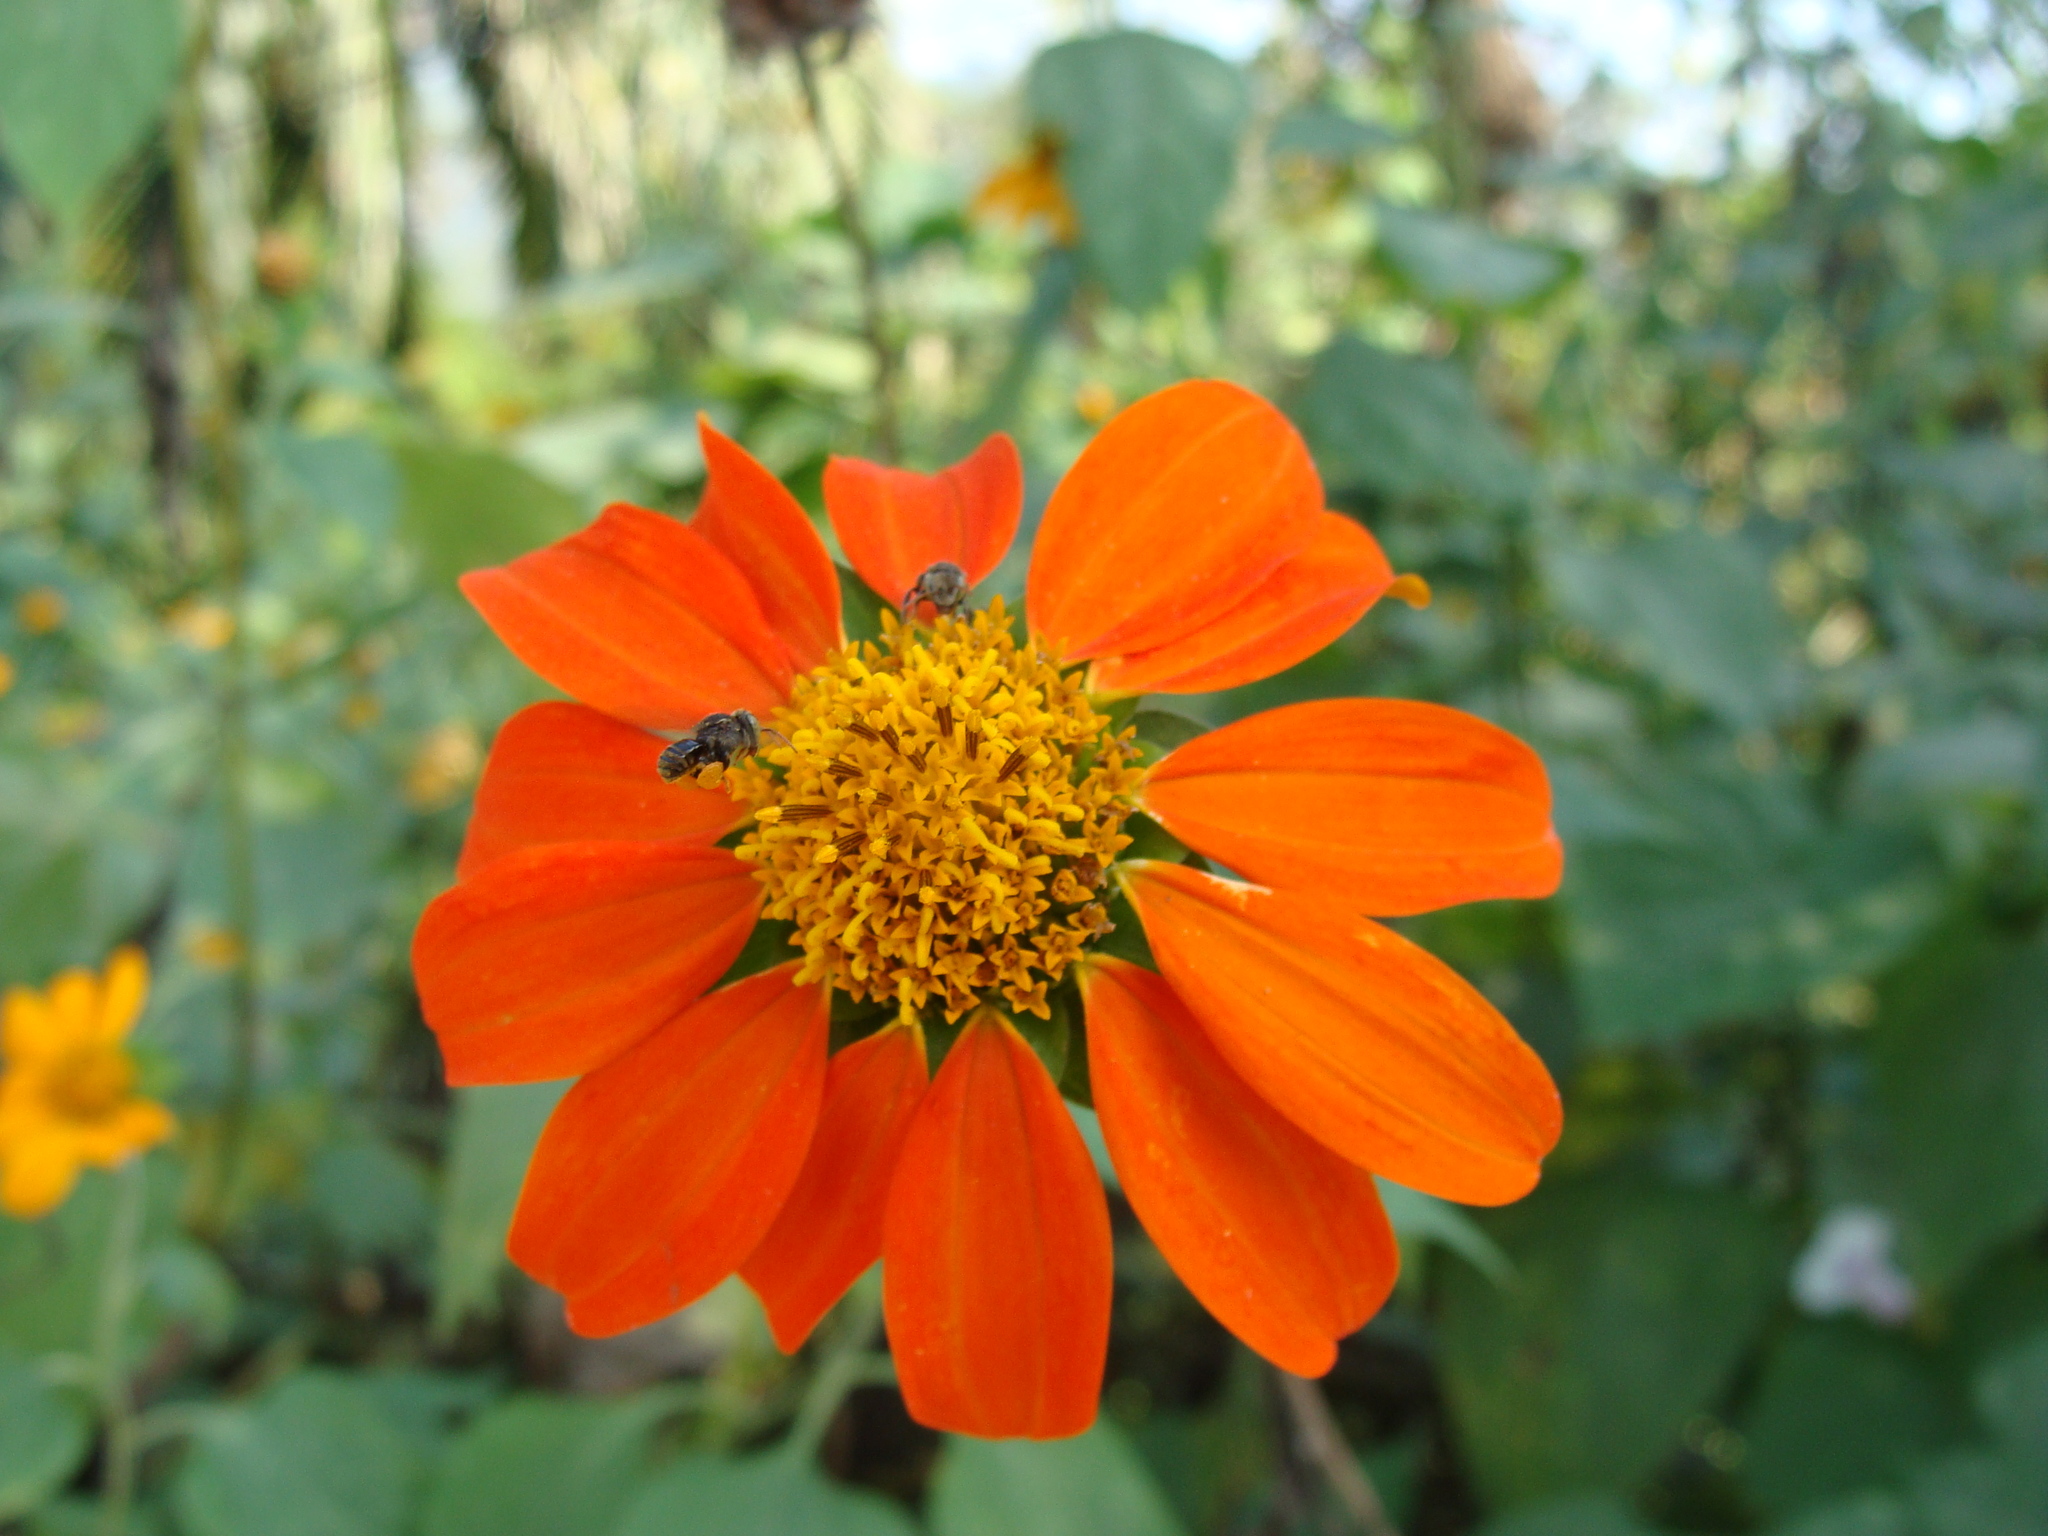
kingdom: Plantae
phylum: Tracheophyta
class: Magnoliopsida
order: Asterales
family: Asteraceae
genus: Tithonia
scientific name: Tithonia rotundifolia
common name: Sunflower
